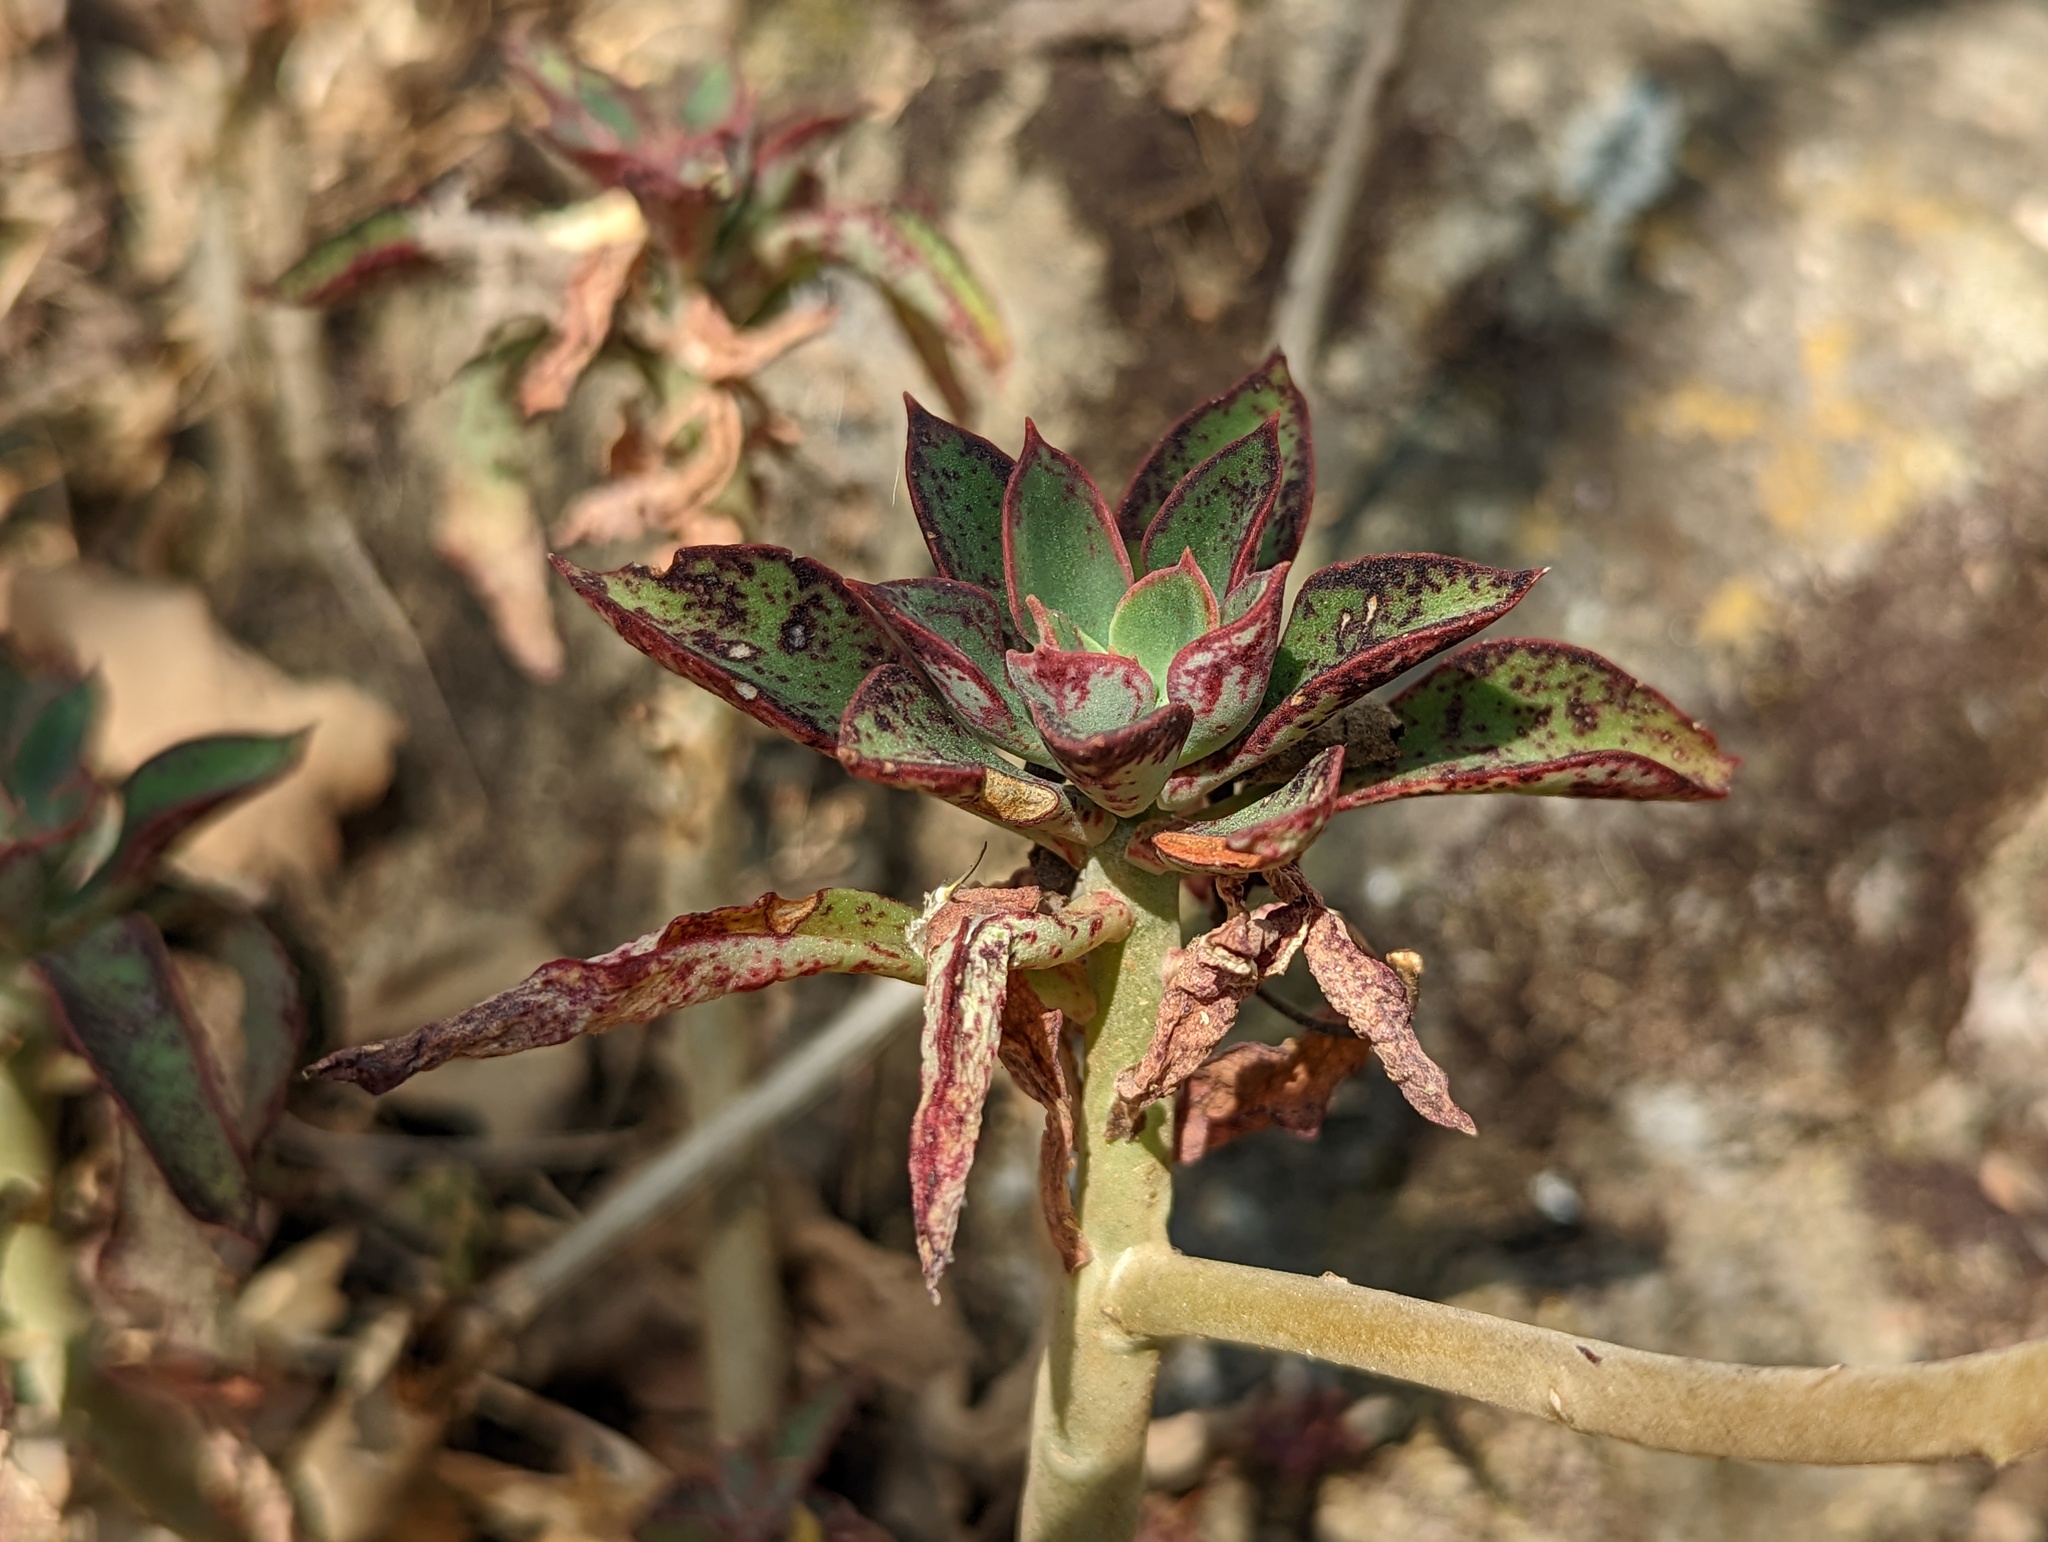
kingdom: Plantae
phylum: Tracheophyta
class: Magnoliopsida
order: Saxifragales
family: Crassulaceae
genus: Echeveria
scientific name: Echeveria chapalensis
